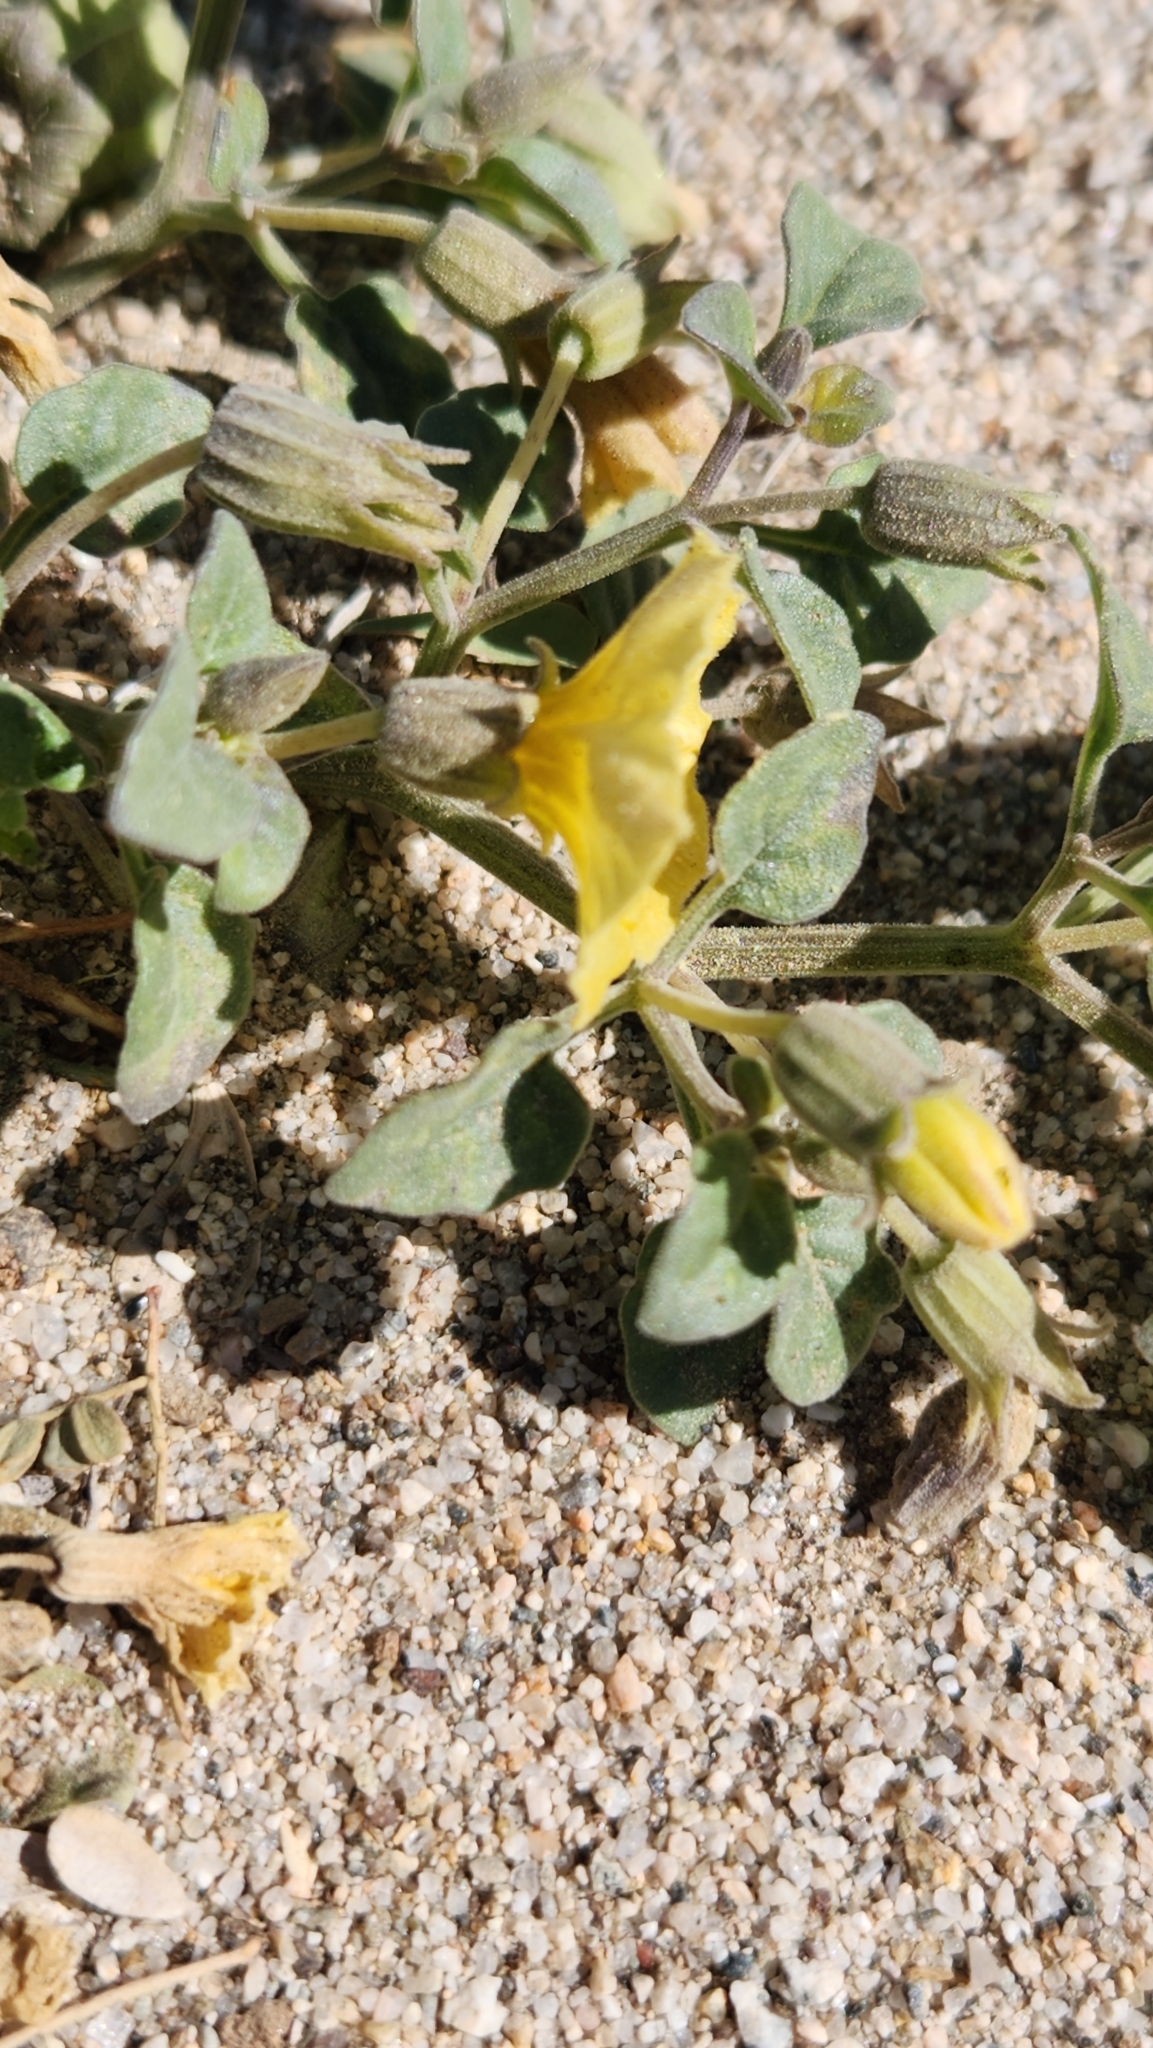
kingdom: Plantae
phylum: Tracheophyta
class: Magnoliopsida
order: Solanales
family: Solanaceae
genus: Physalis
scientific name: Physalis crassifolia
